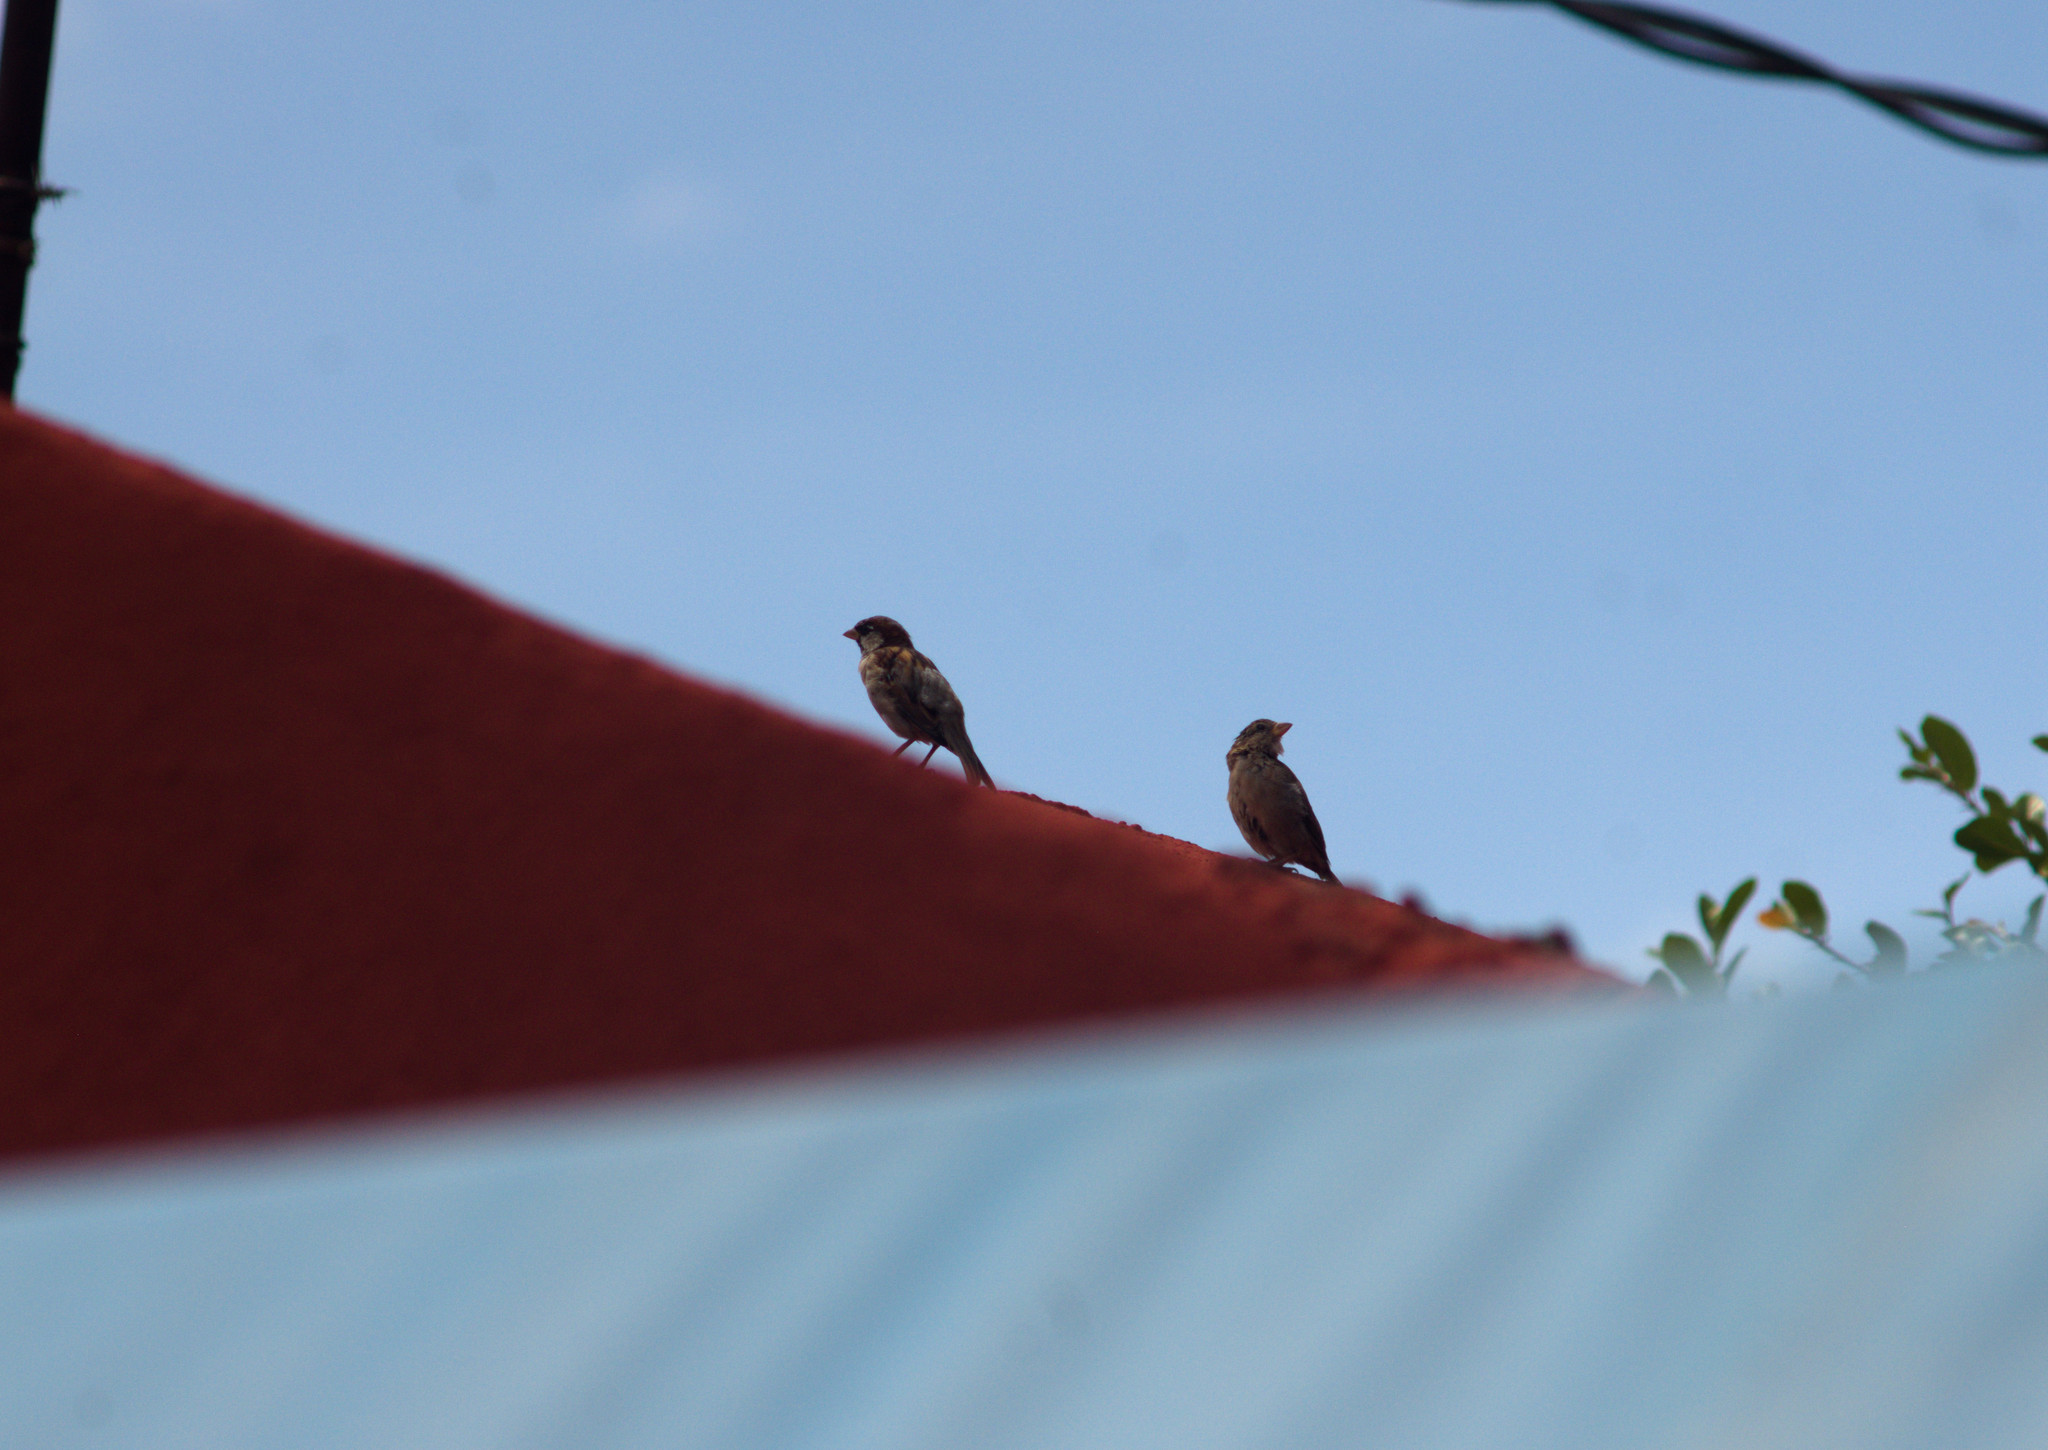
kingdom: Animalia
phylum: Chordata
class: Aves
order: Passeriformes
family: Passeridae
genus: Passer
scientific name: Passer domesticus
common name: House sparrow
